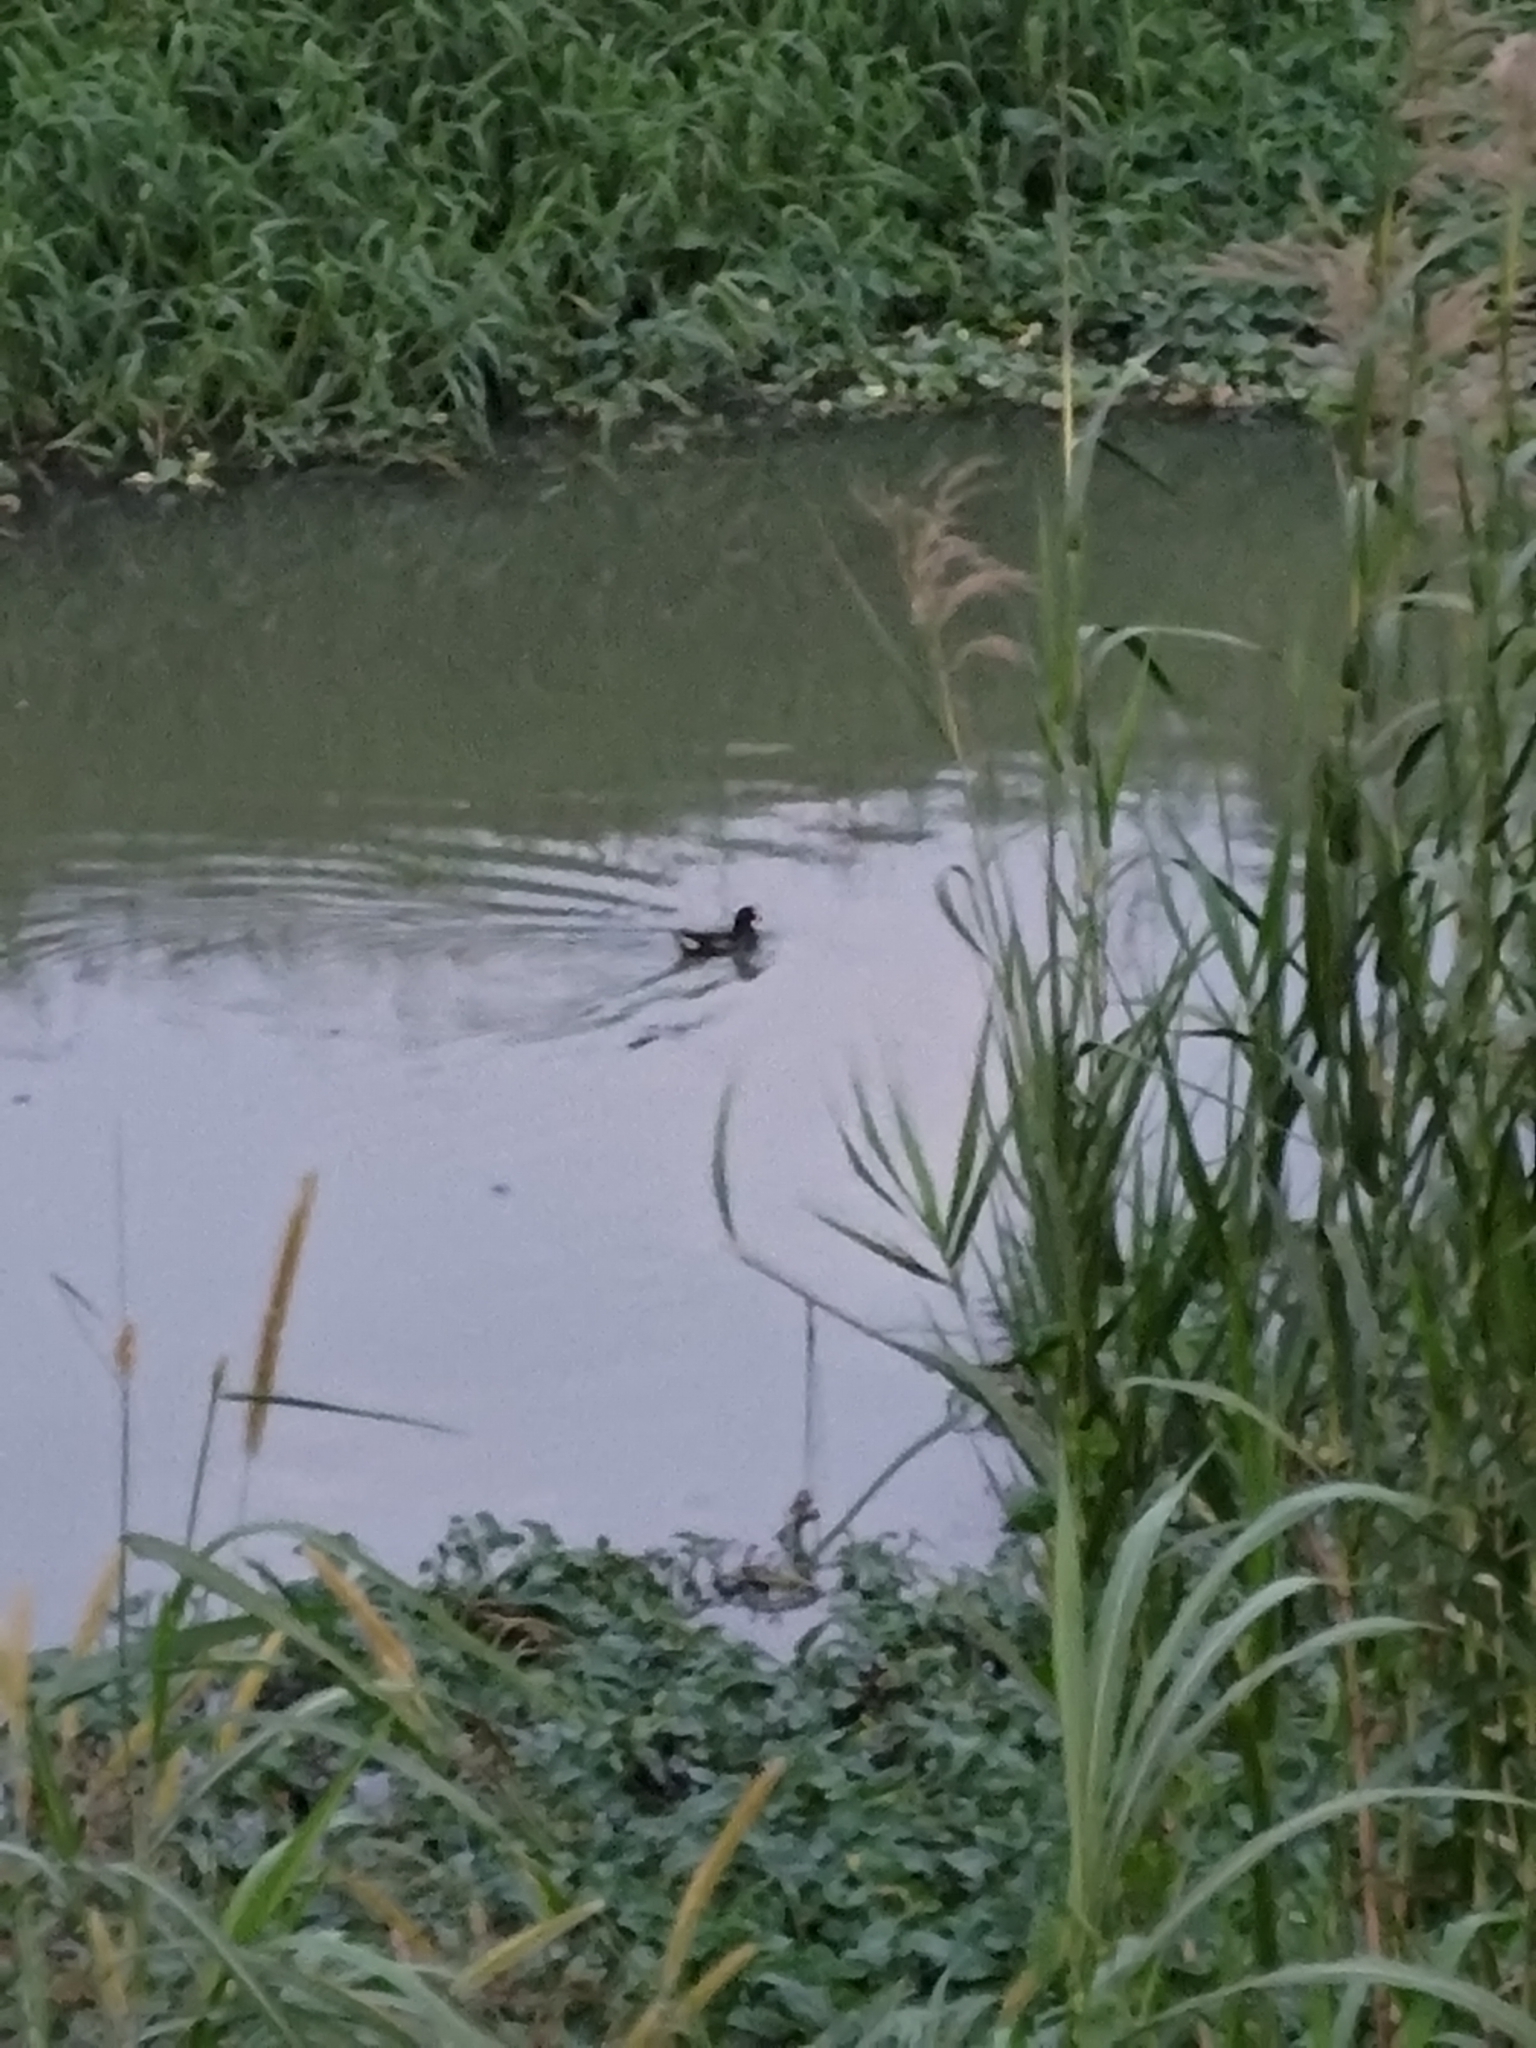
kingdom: Animalia
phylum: Chordata
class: Aves
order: Gruiformes
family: Rallidae
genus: Gallinula
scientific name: Gallinula chloropus
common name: Common moorhen
